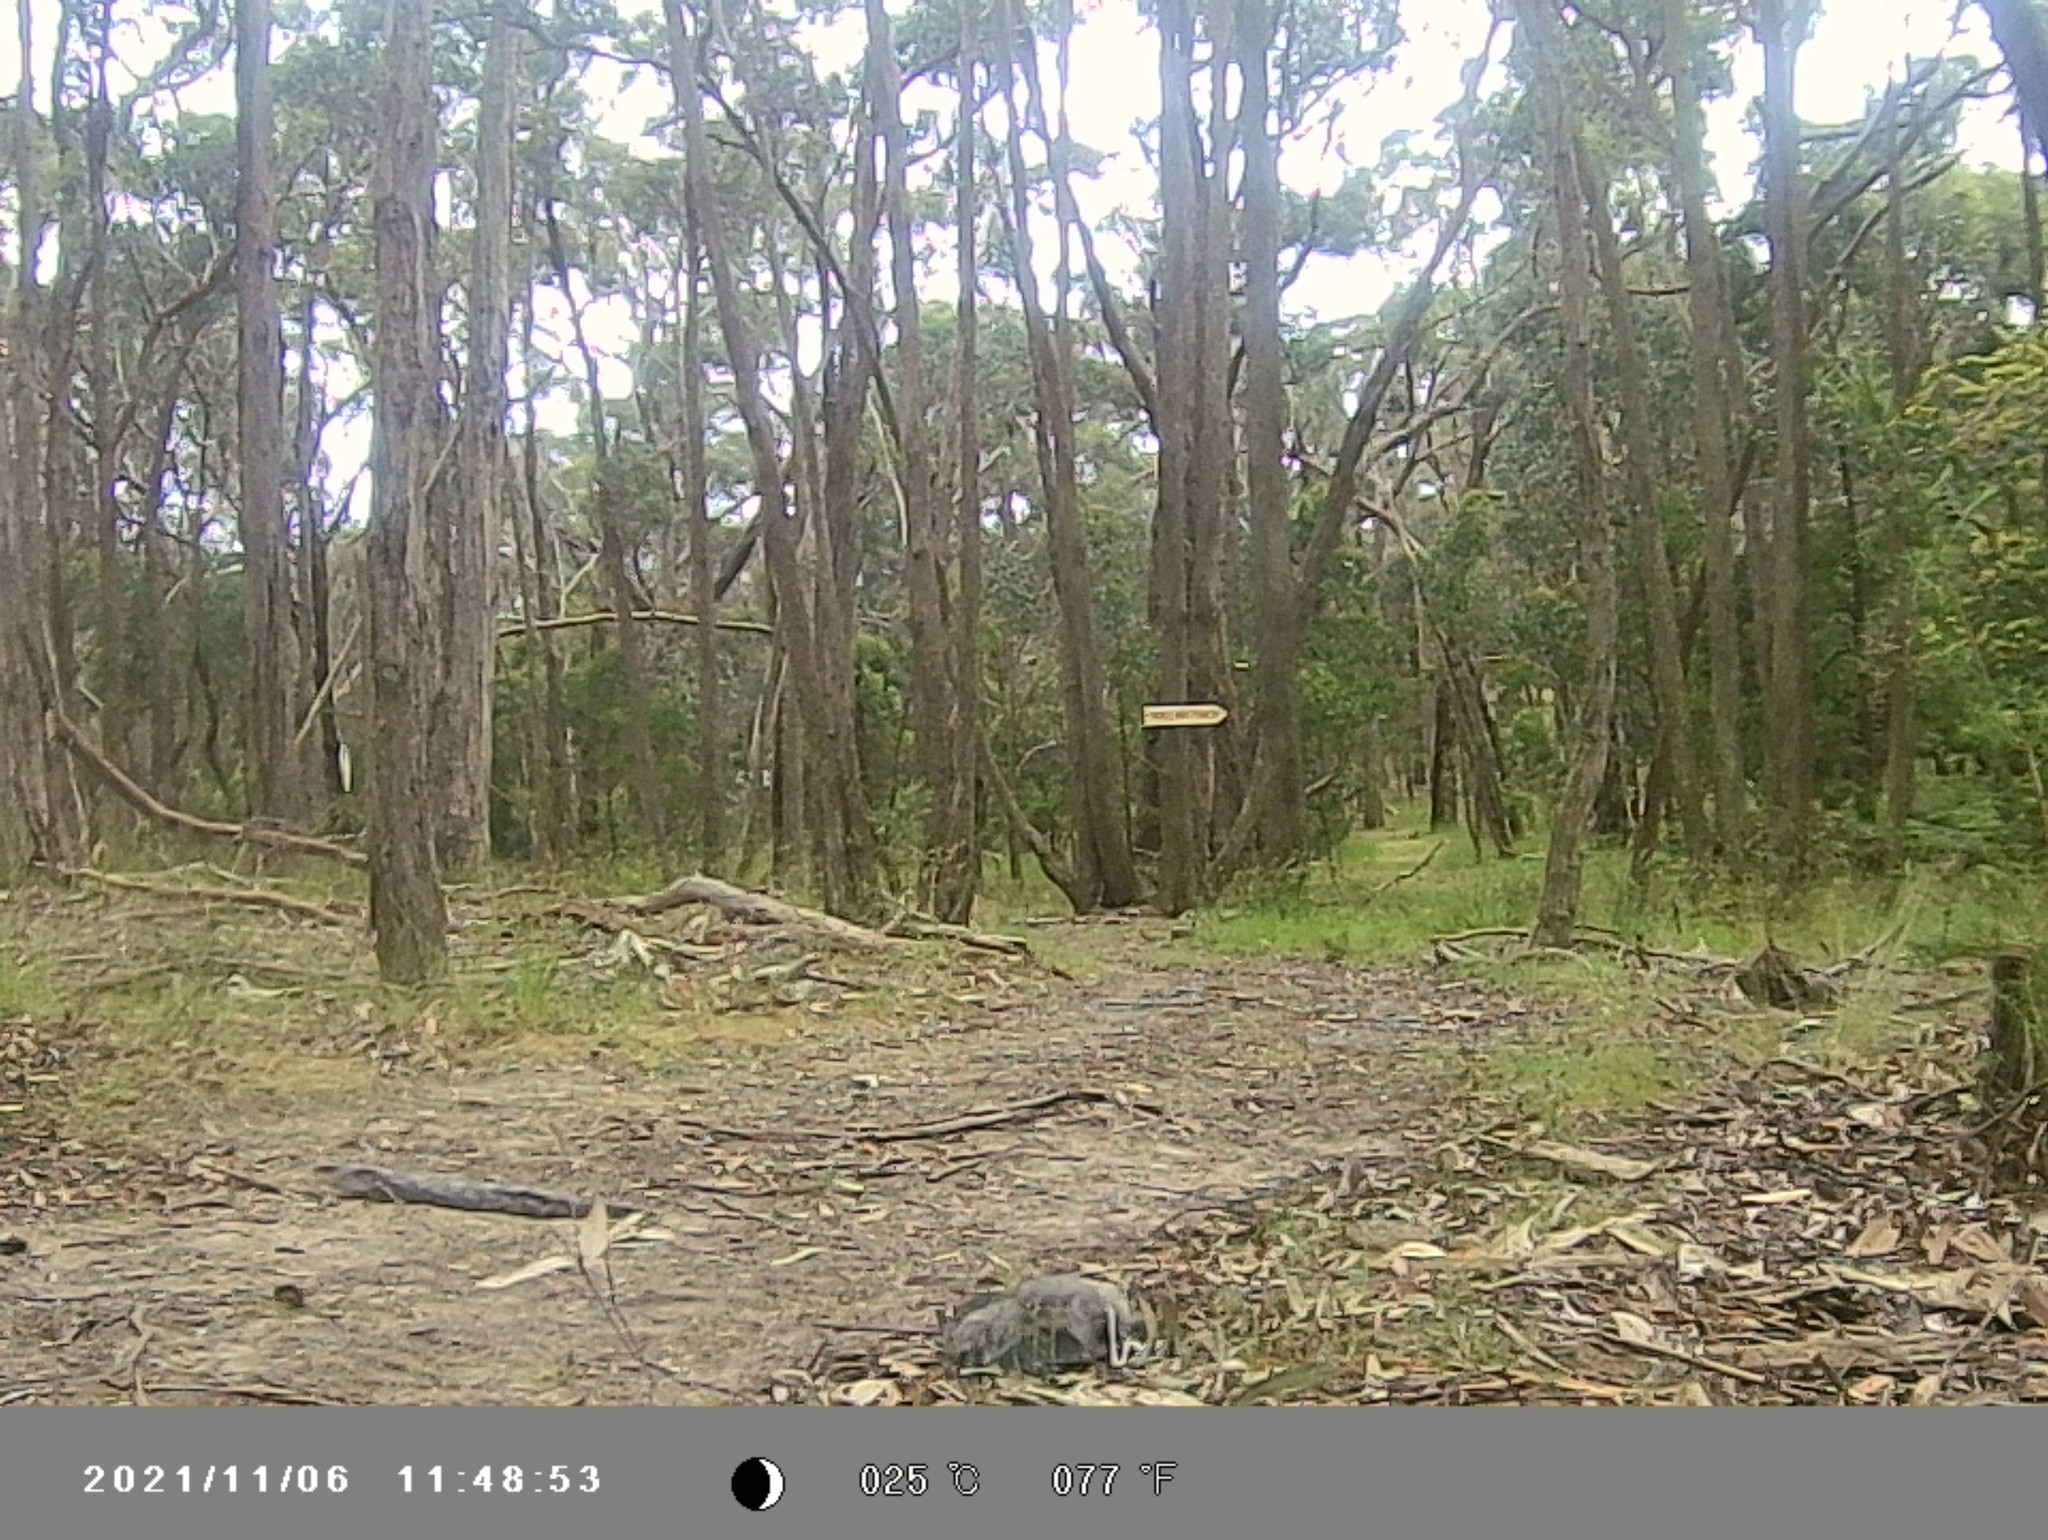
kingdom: Animalia
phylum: Chordata
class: Squamata
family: Scincidae
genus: Tiliqua
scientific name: Tiliqua nigrolutea
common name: Blotched blue-tongued lizard
